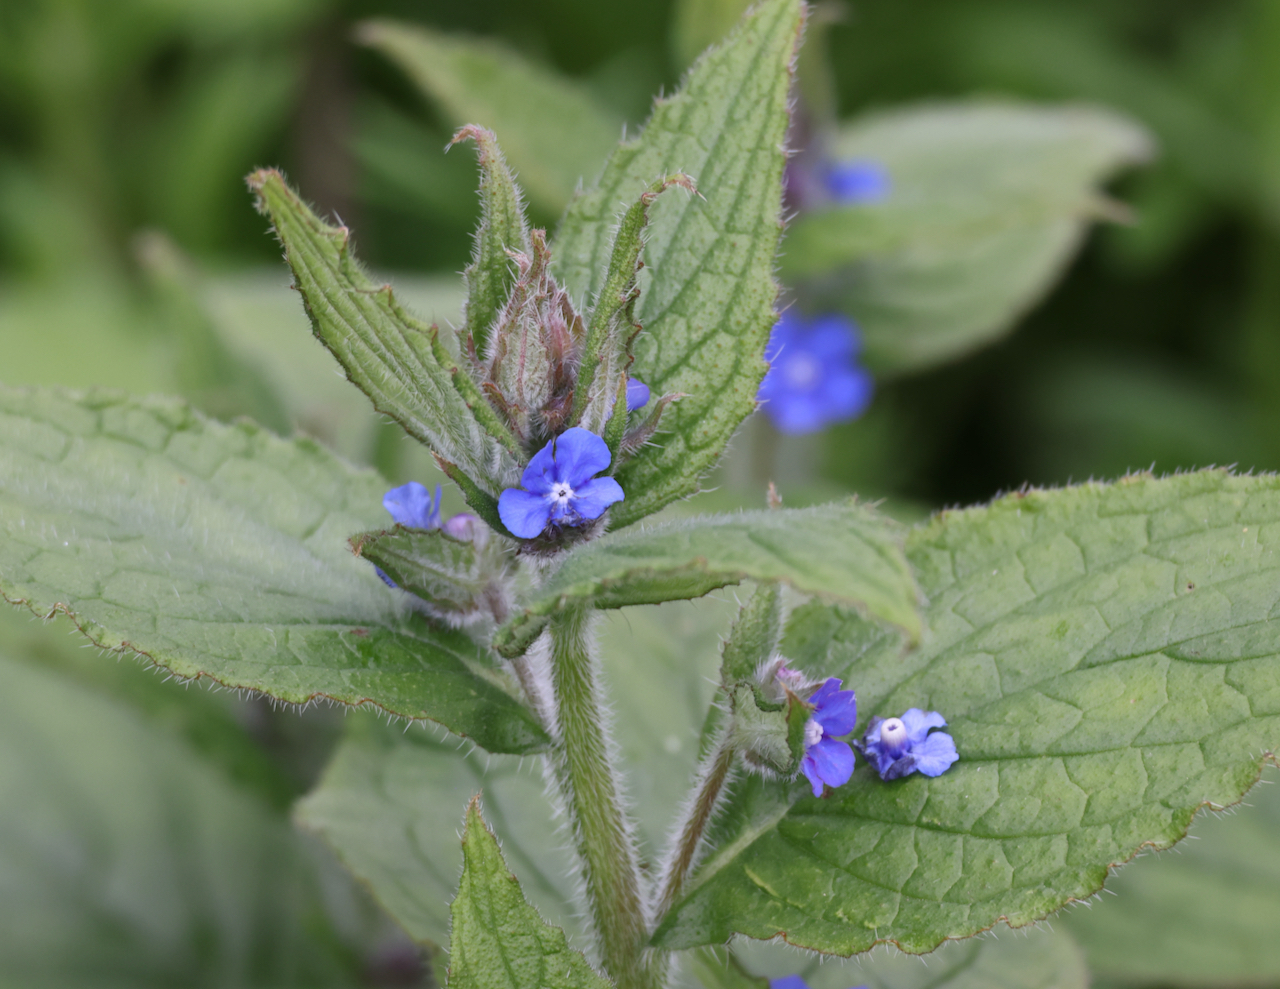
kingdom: Plantae
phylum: Tracheophyta
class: Magnoliopsida
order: Boraginales
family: Boraginaceae
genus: Pentaglottis
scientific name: Pentaglottis sempervirens
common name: Green alkanet
